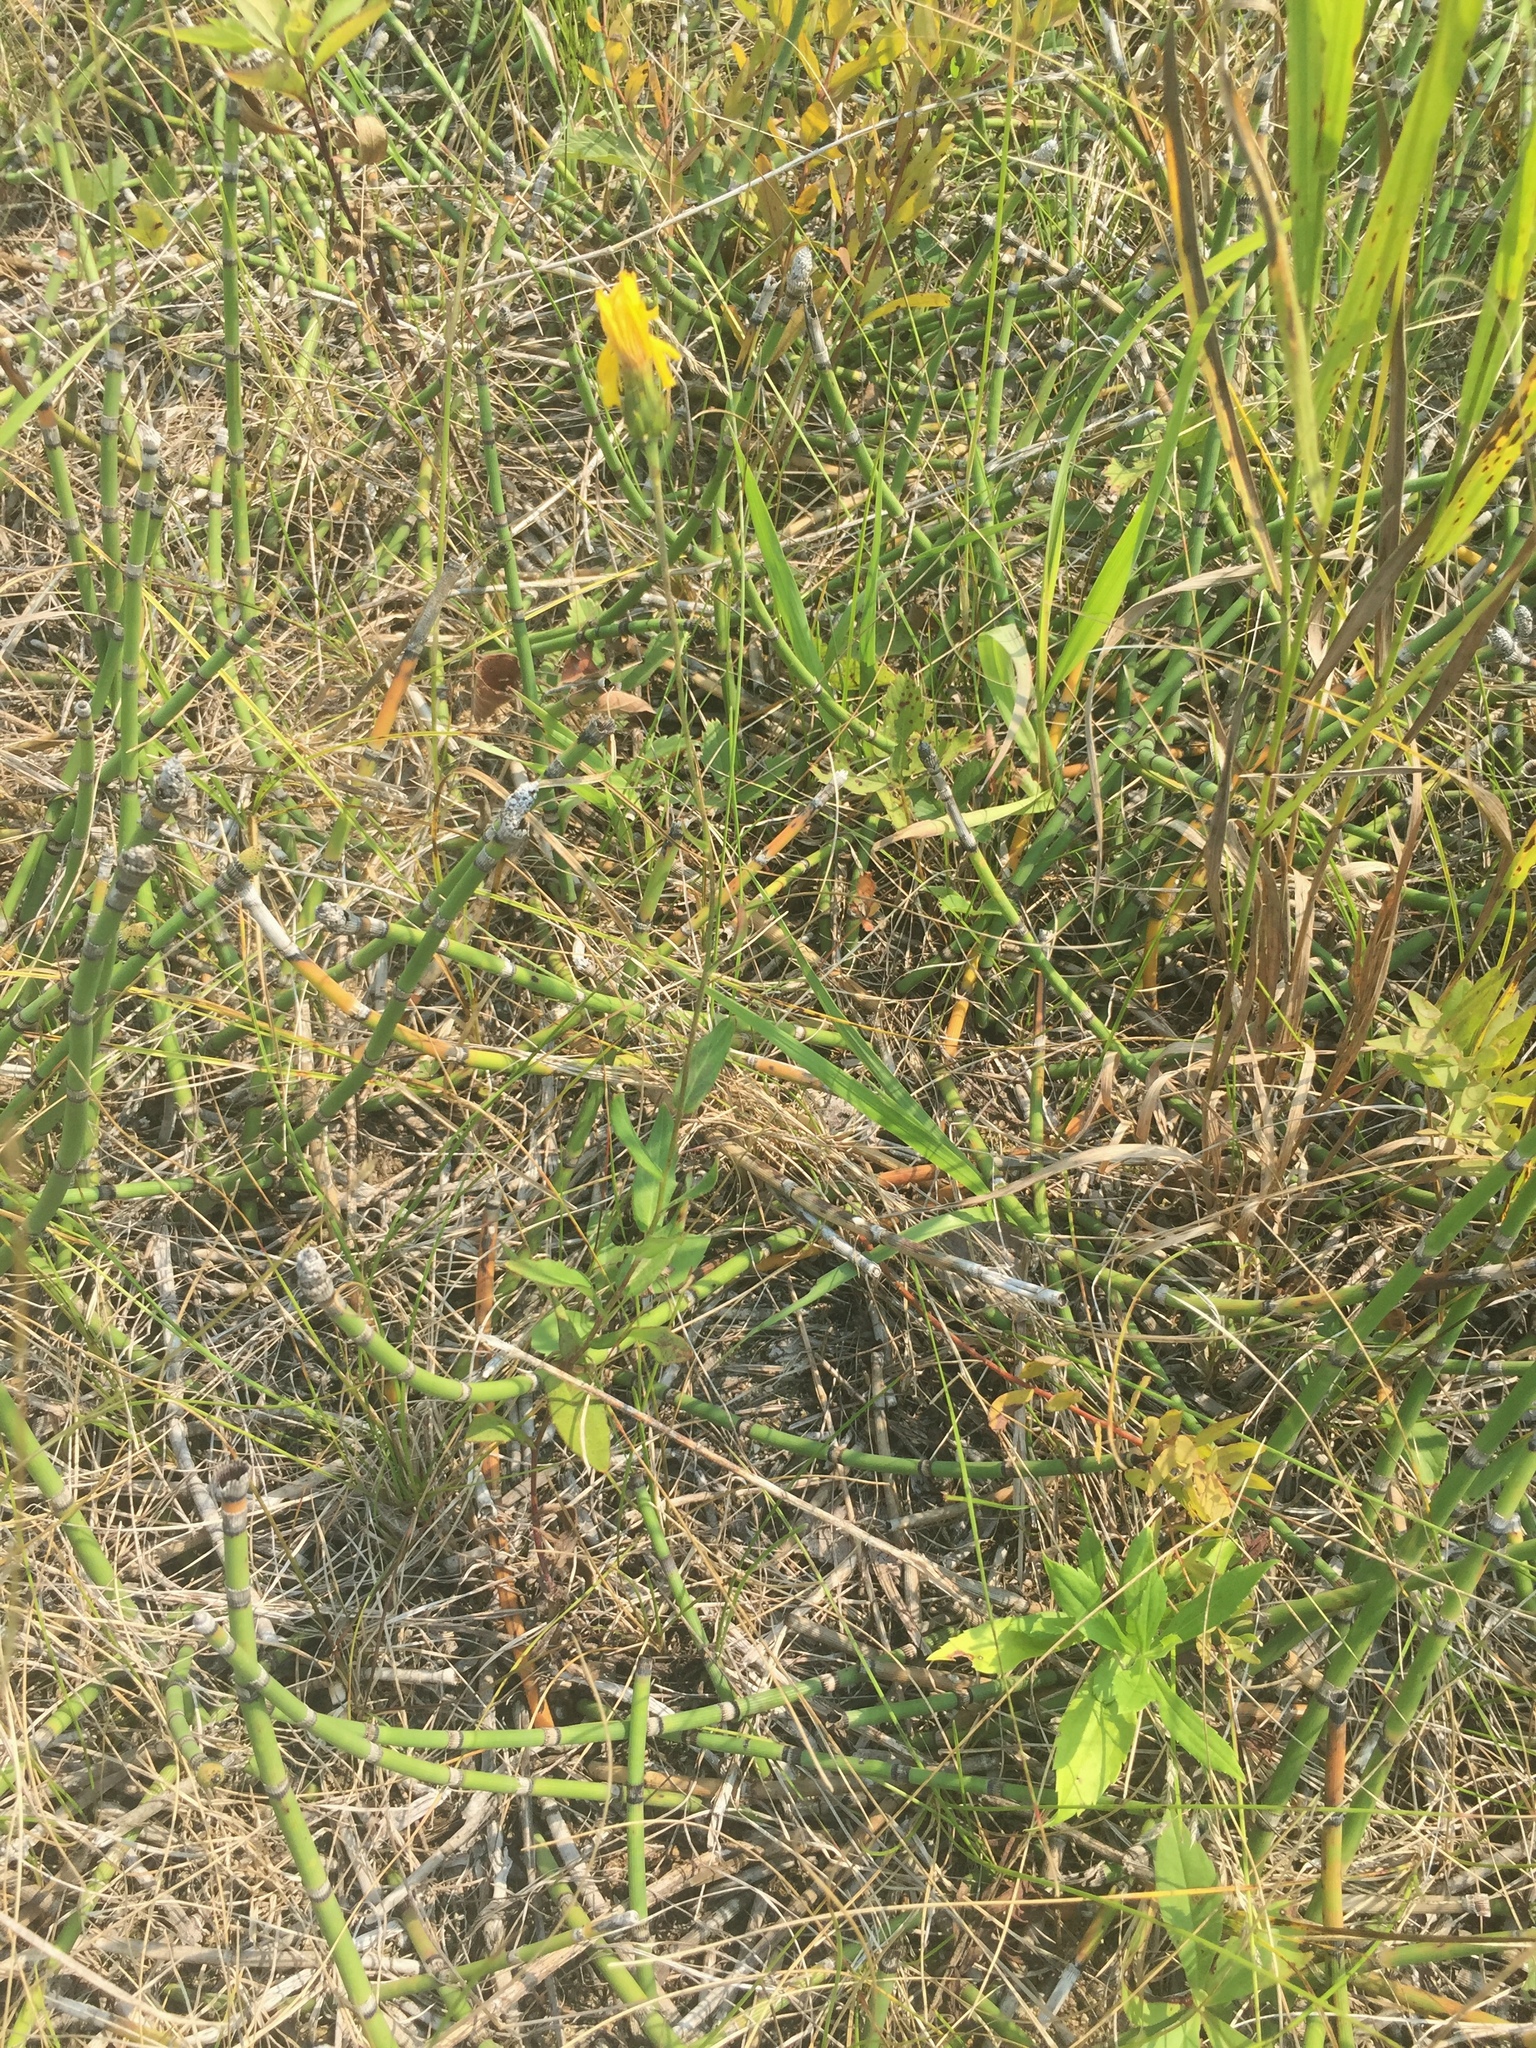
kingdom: Plantae
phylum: Tracheophyta
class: Magnoliopsida
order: Asterales
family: Asteraceae
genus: Agoseris
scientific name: Agoseris glauca
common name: Prairie agoseris
